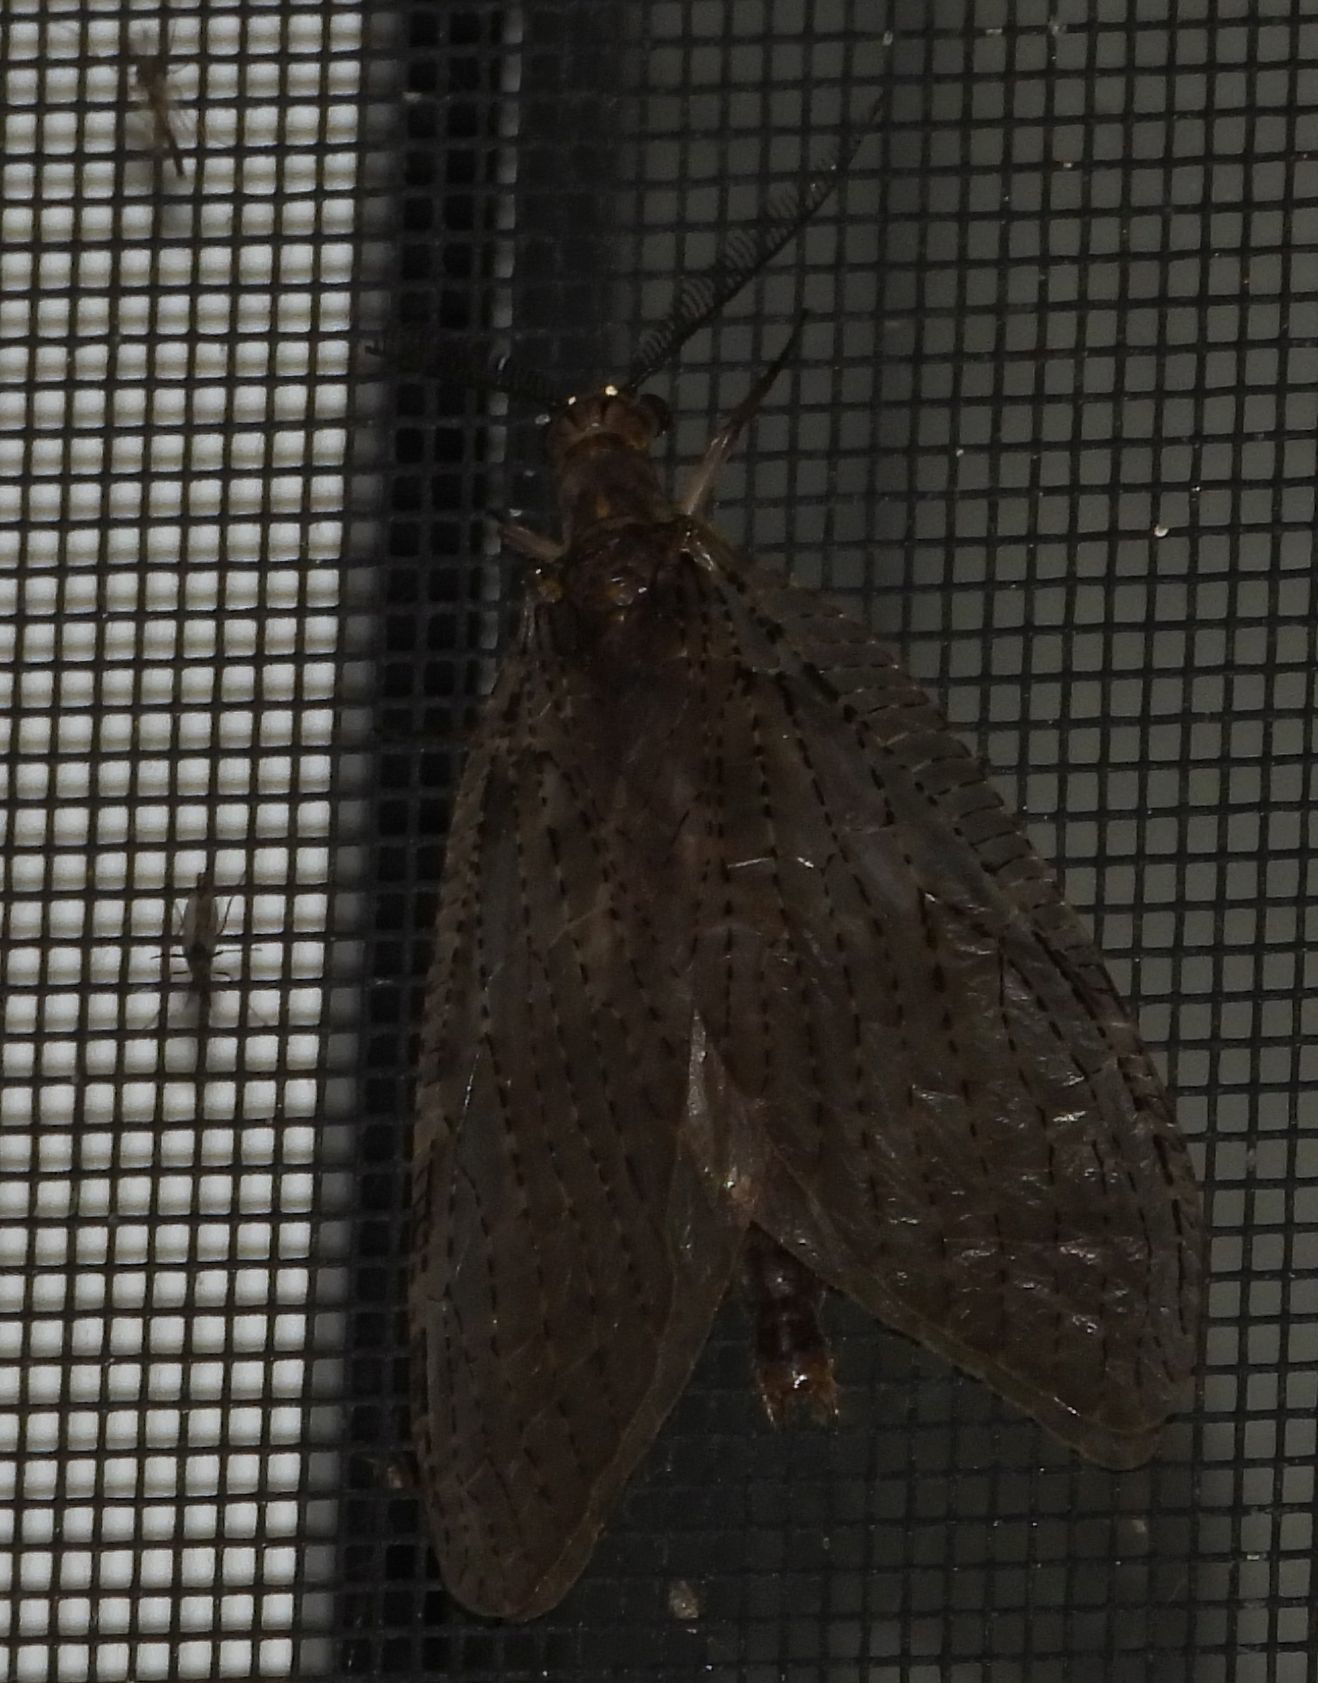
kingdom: Animalia
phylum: Arthropoda
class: Insecta
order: Megaloptera
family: Corydalidae
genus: Chauliodes
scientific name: Chauliodes pectinicornis
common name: Summer fishfly
